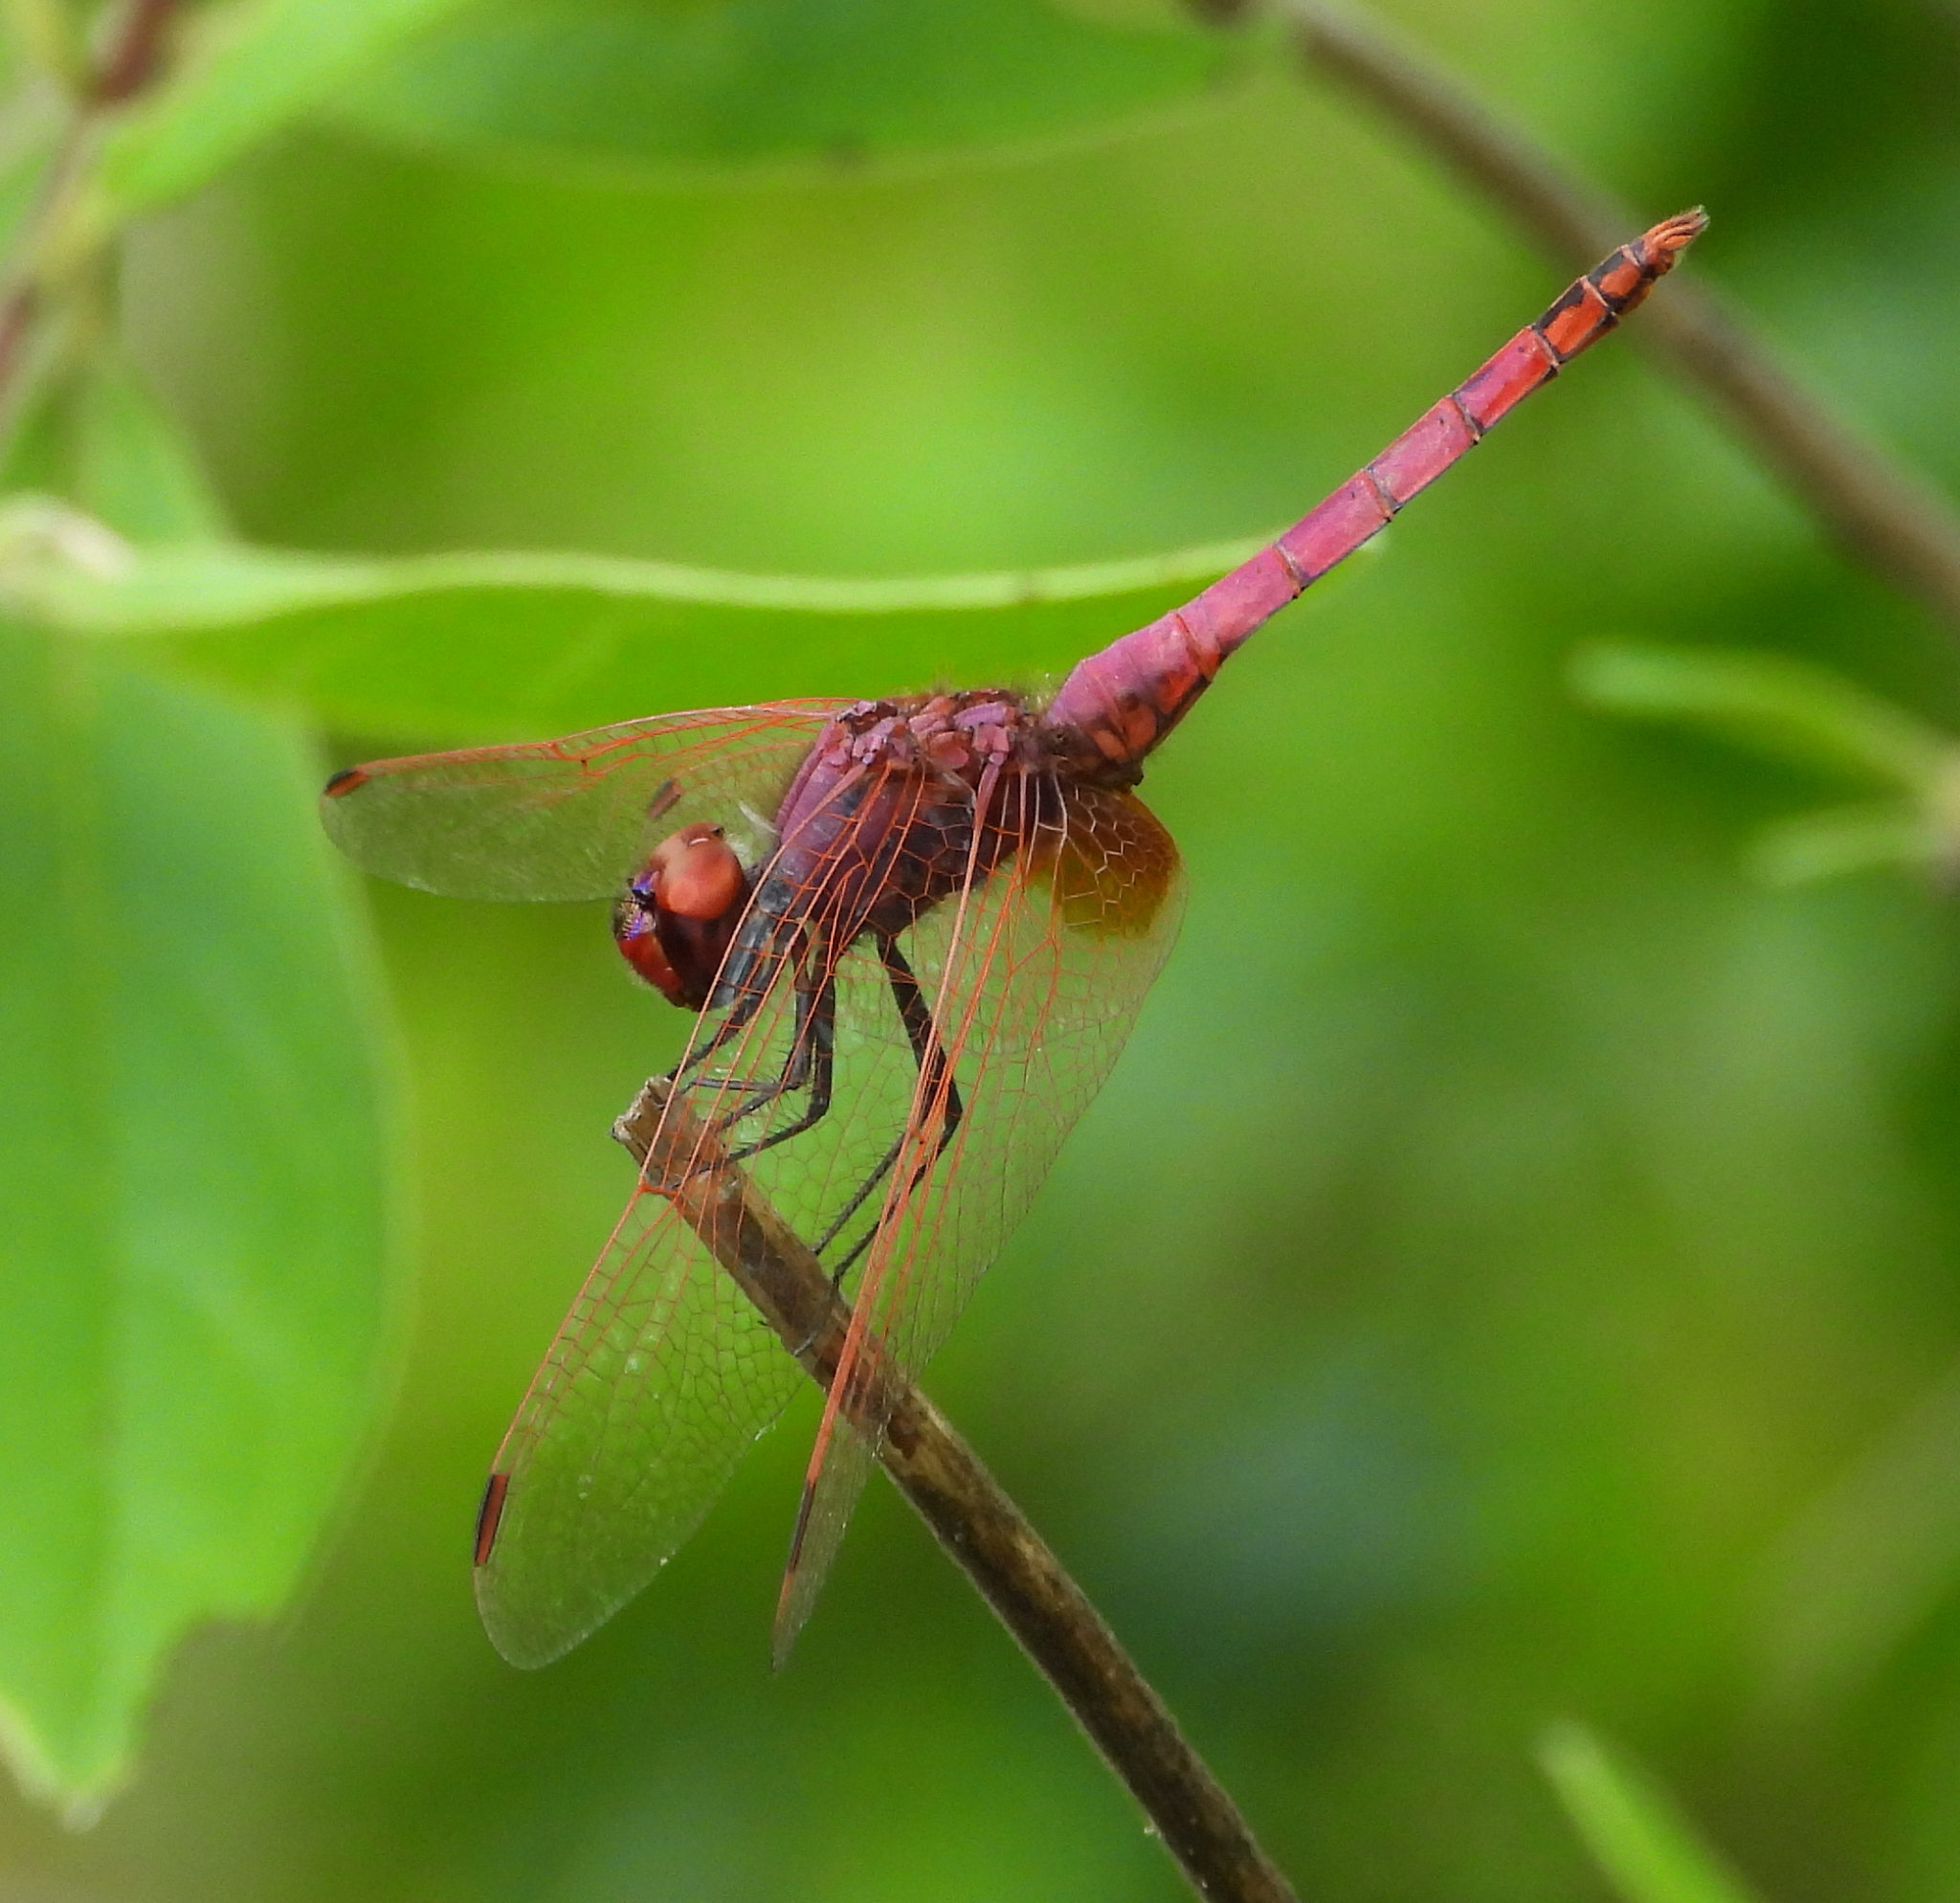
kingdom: Animalia
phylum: Arthropoda
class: Insecta
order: Odonata
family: Libellulidae
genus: Trithemis
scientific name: Trithemis annulata
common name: Violet dropwing
